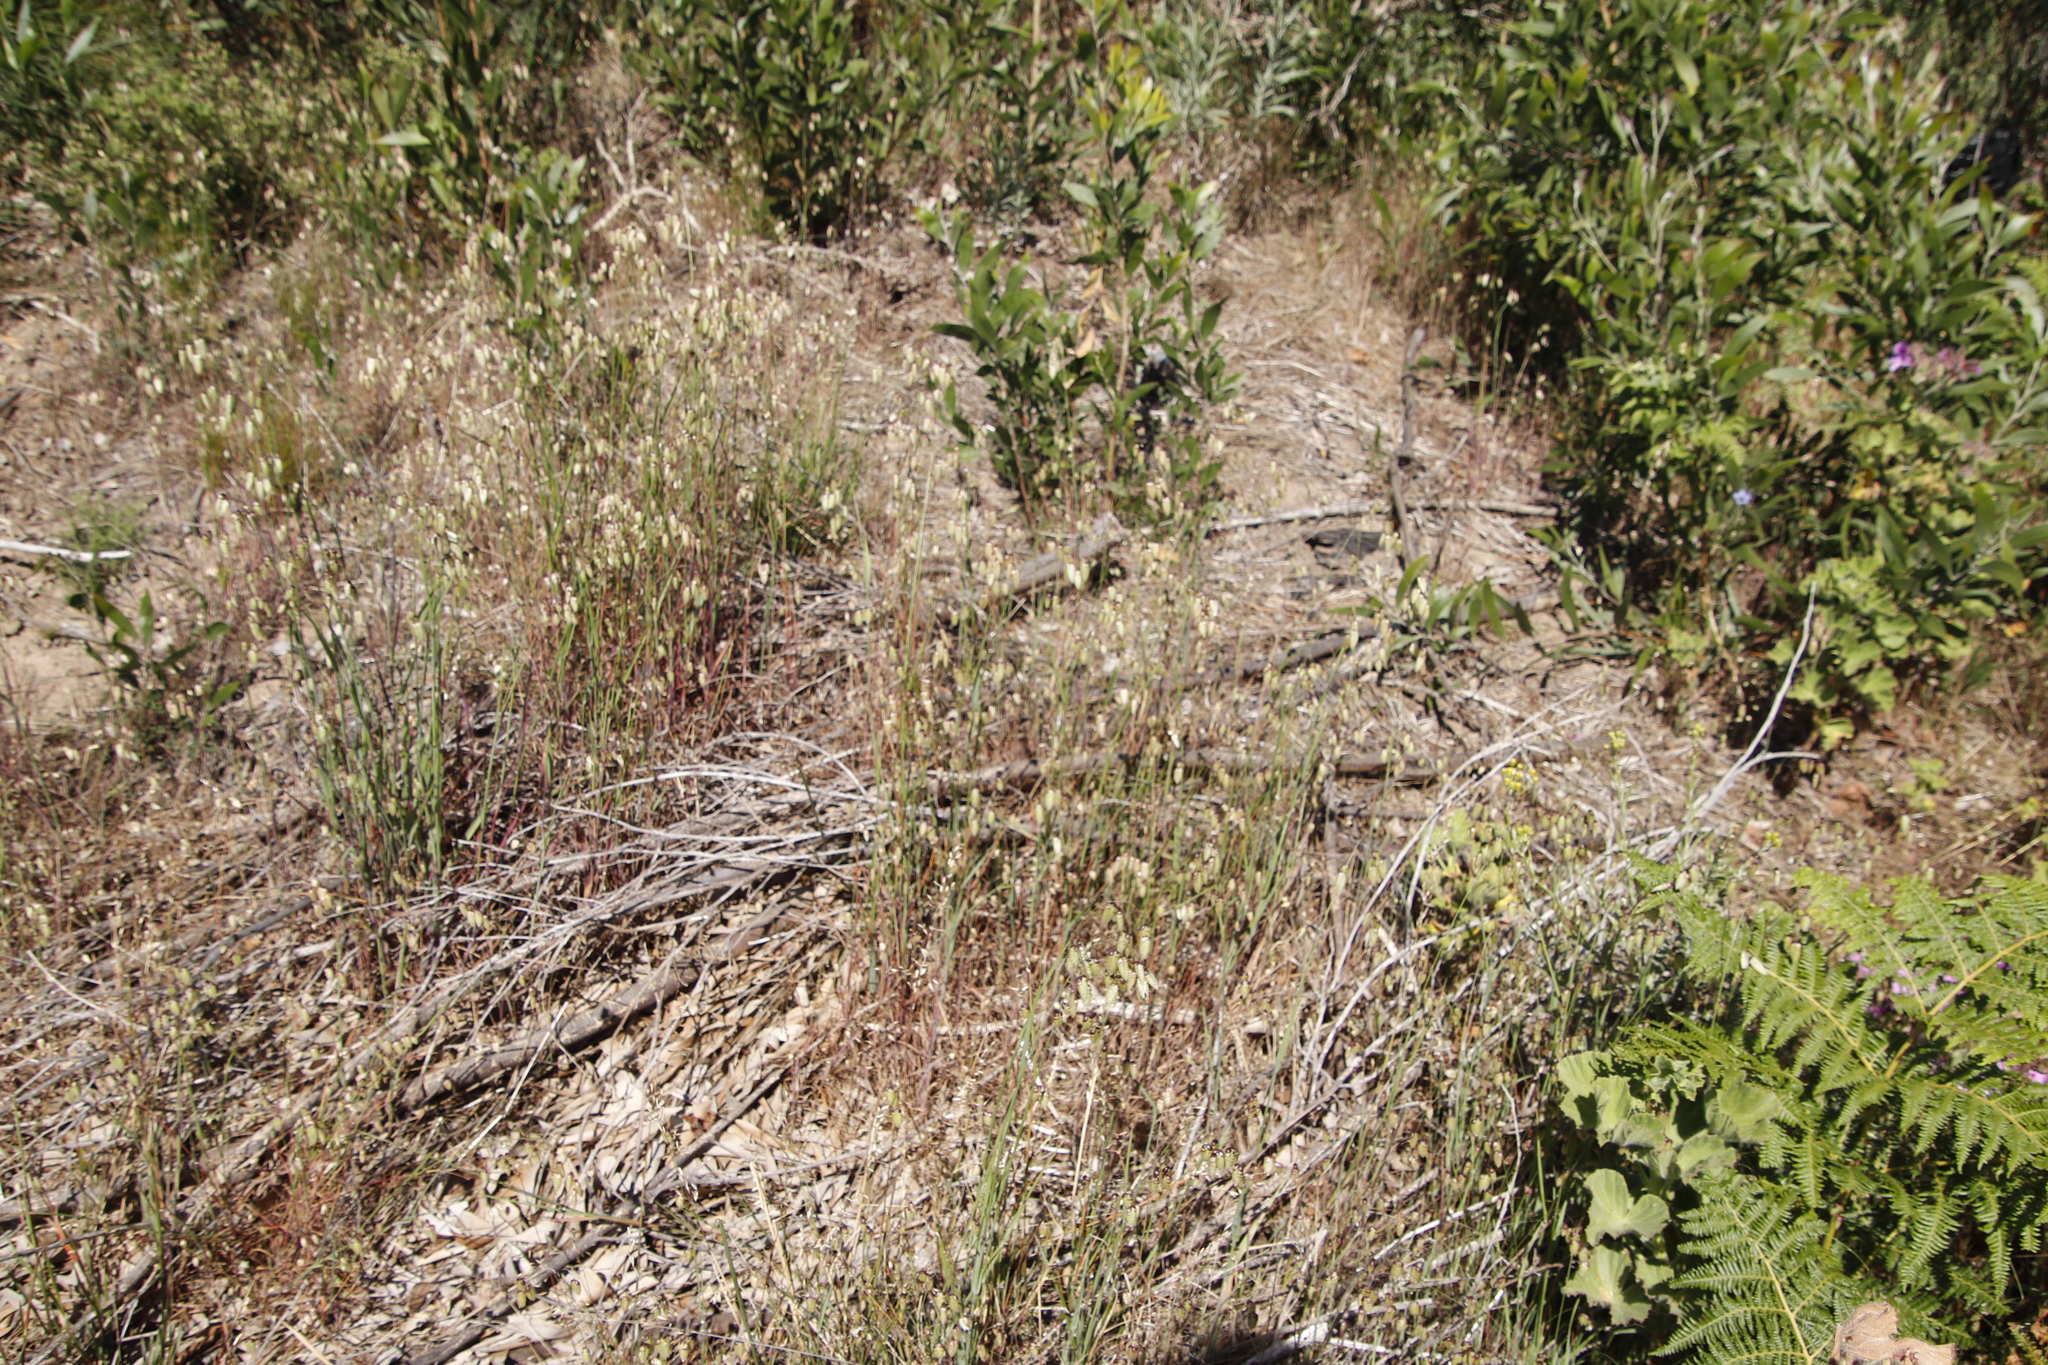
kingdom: Plantae
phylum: Tracheophyta
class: Liliopsida
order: Poales
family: Poaceae
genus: Briza
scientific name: Briza maxima
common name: Big quakinggrass
